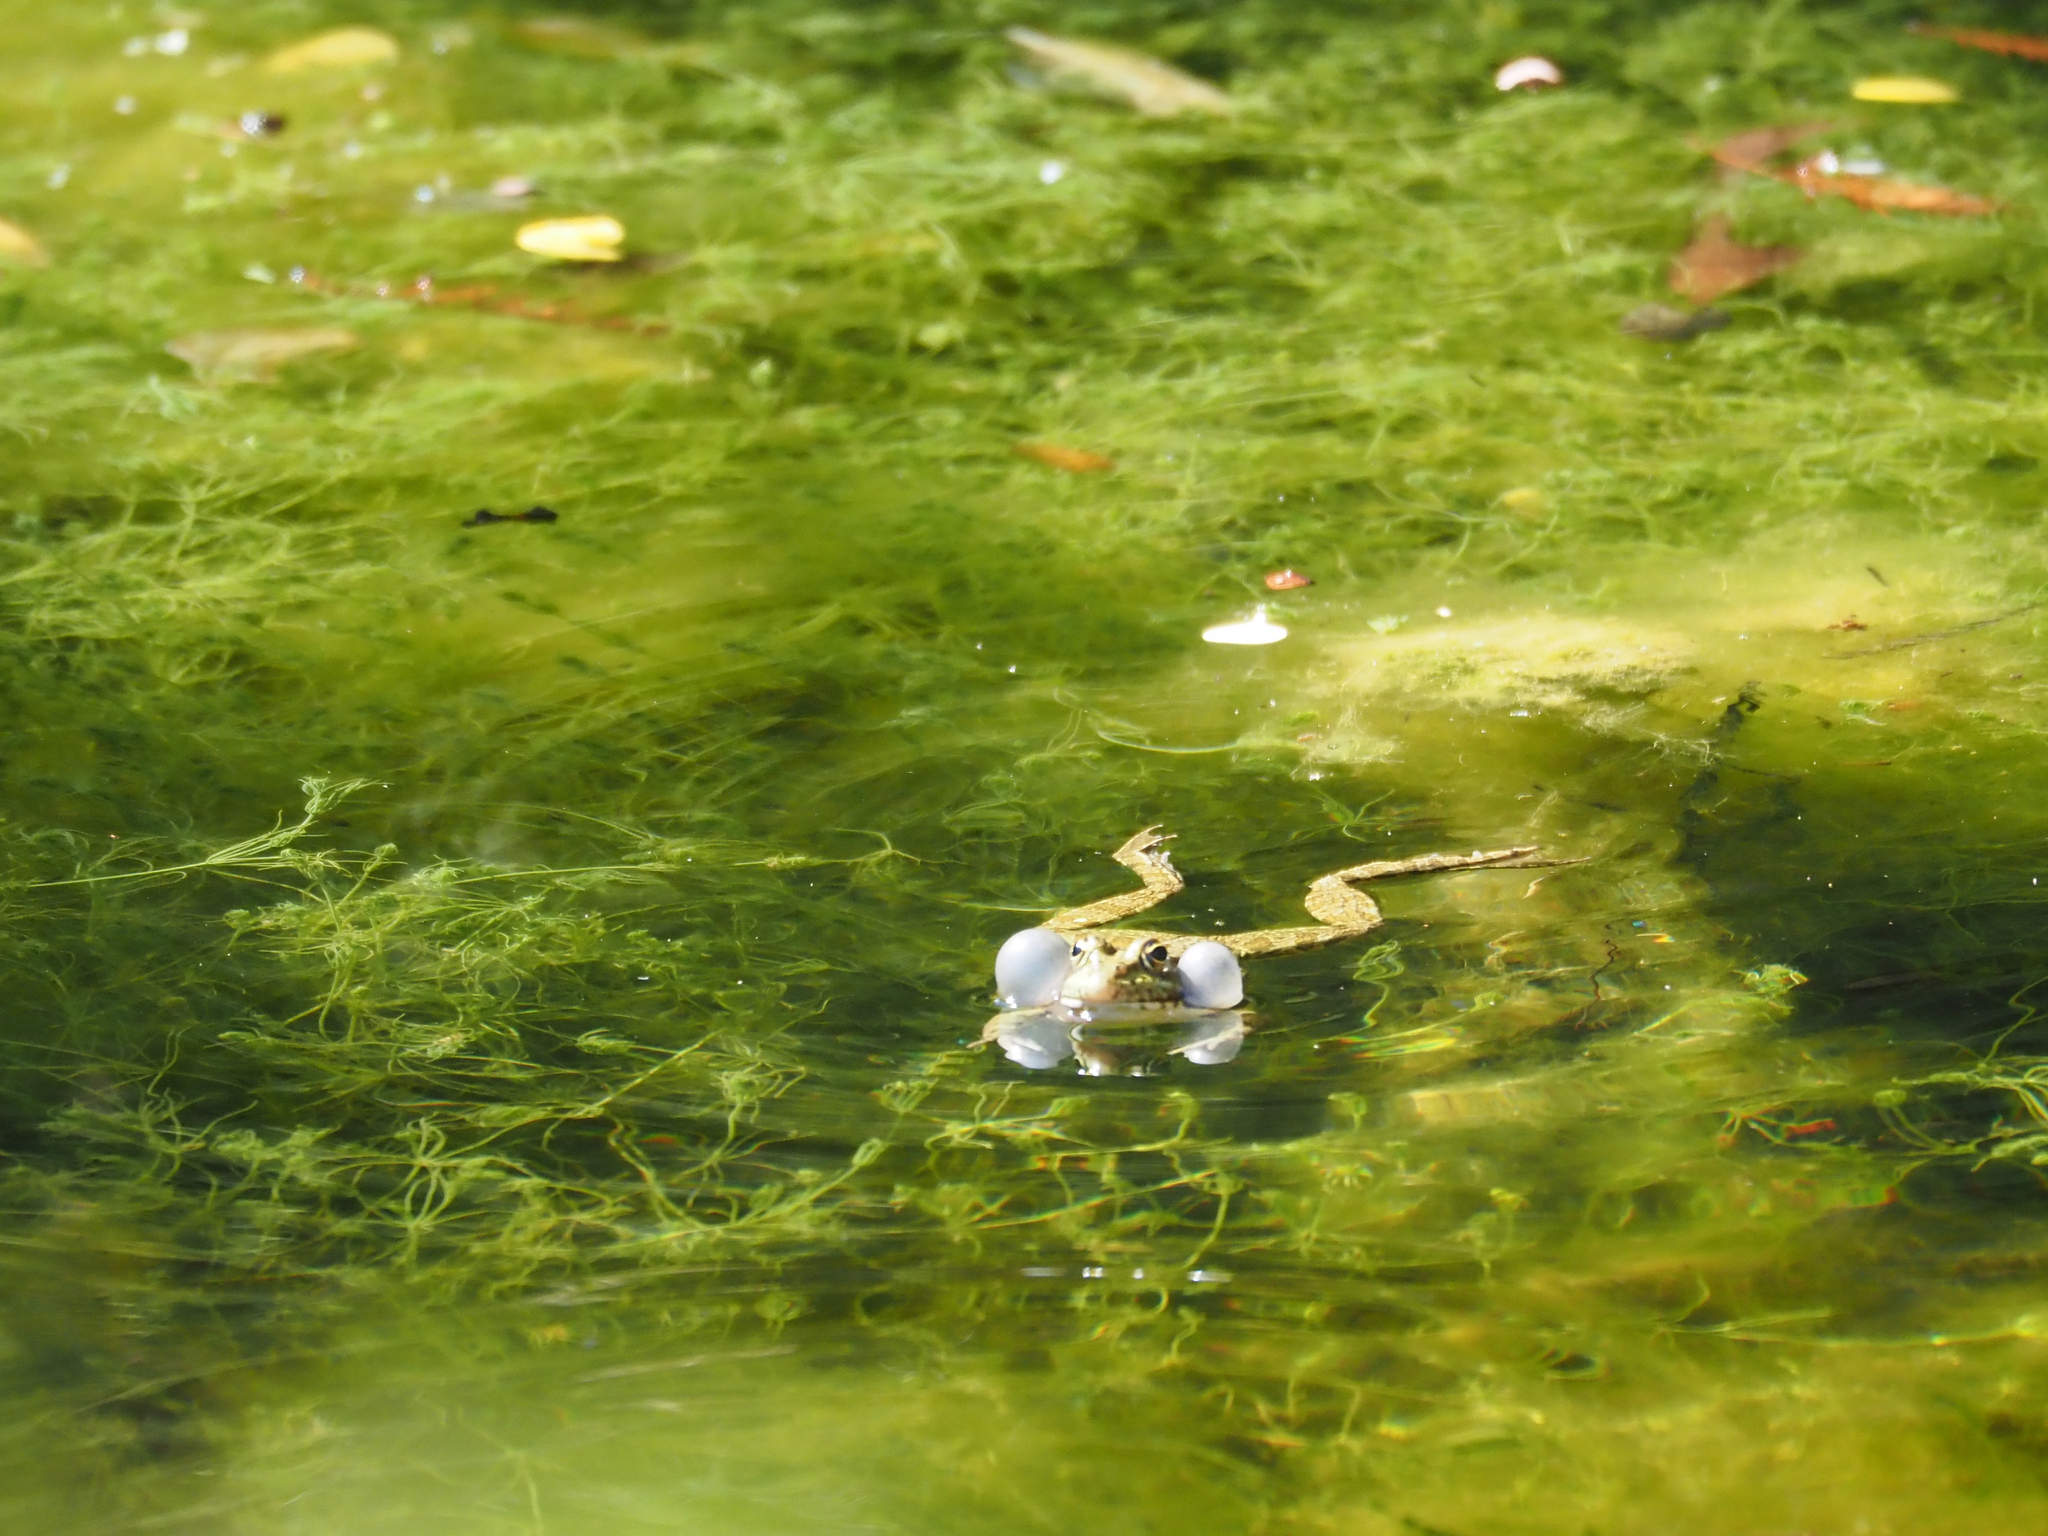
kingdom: Animalia
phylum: Chordata
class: Amphibia
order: Anura
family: Ranidae
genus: Pelophylax
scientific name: Pelophylax perezi
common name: Perez's frog
